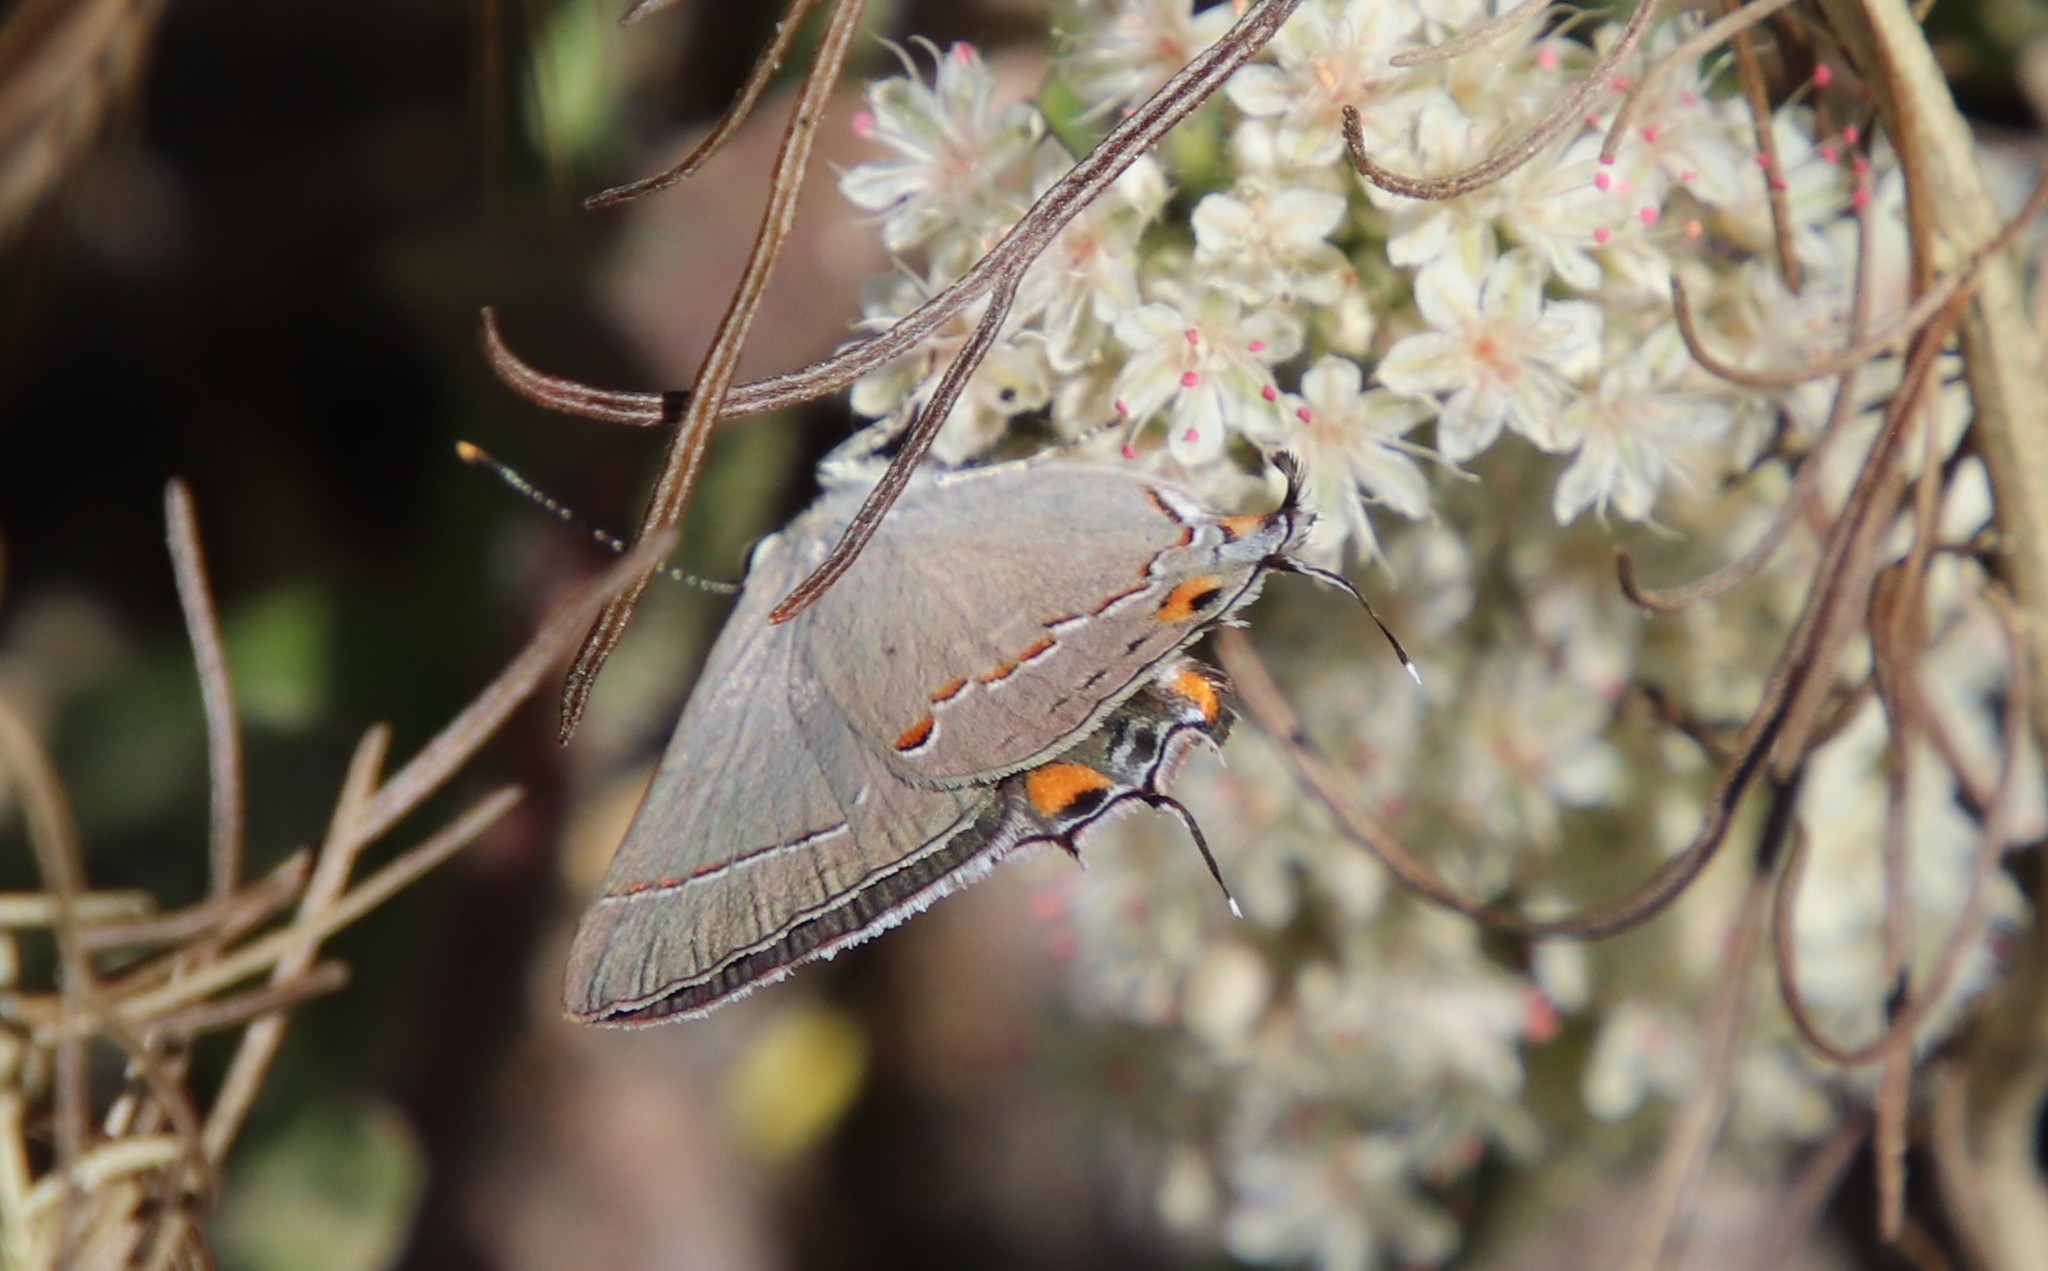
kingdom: Animalia
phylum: Arthropoda
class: Insecta
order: Lepidoptera
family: Lycaenidae
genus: Strymon
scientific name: Strymon melinus
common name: Gray hairstreak
